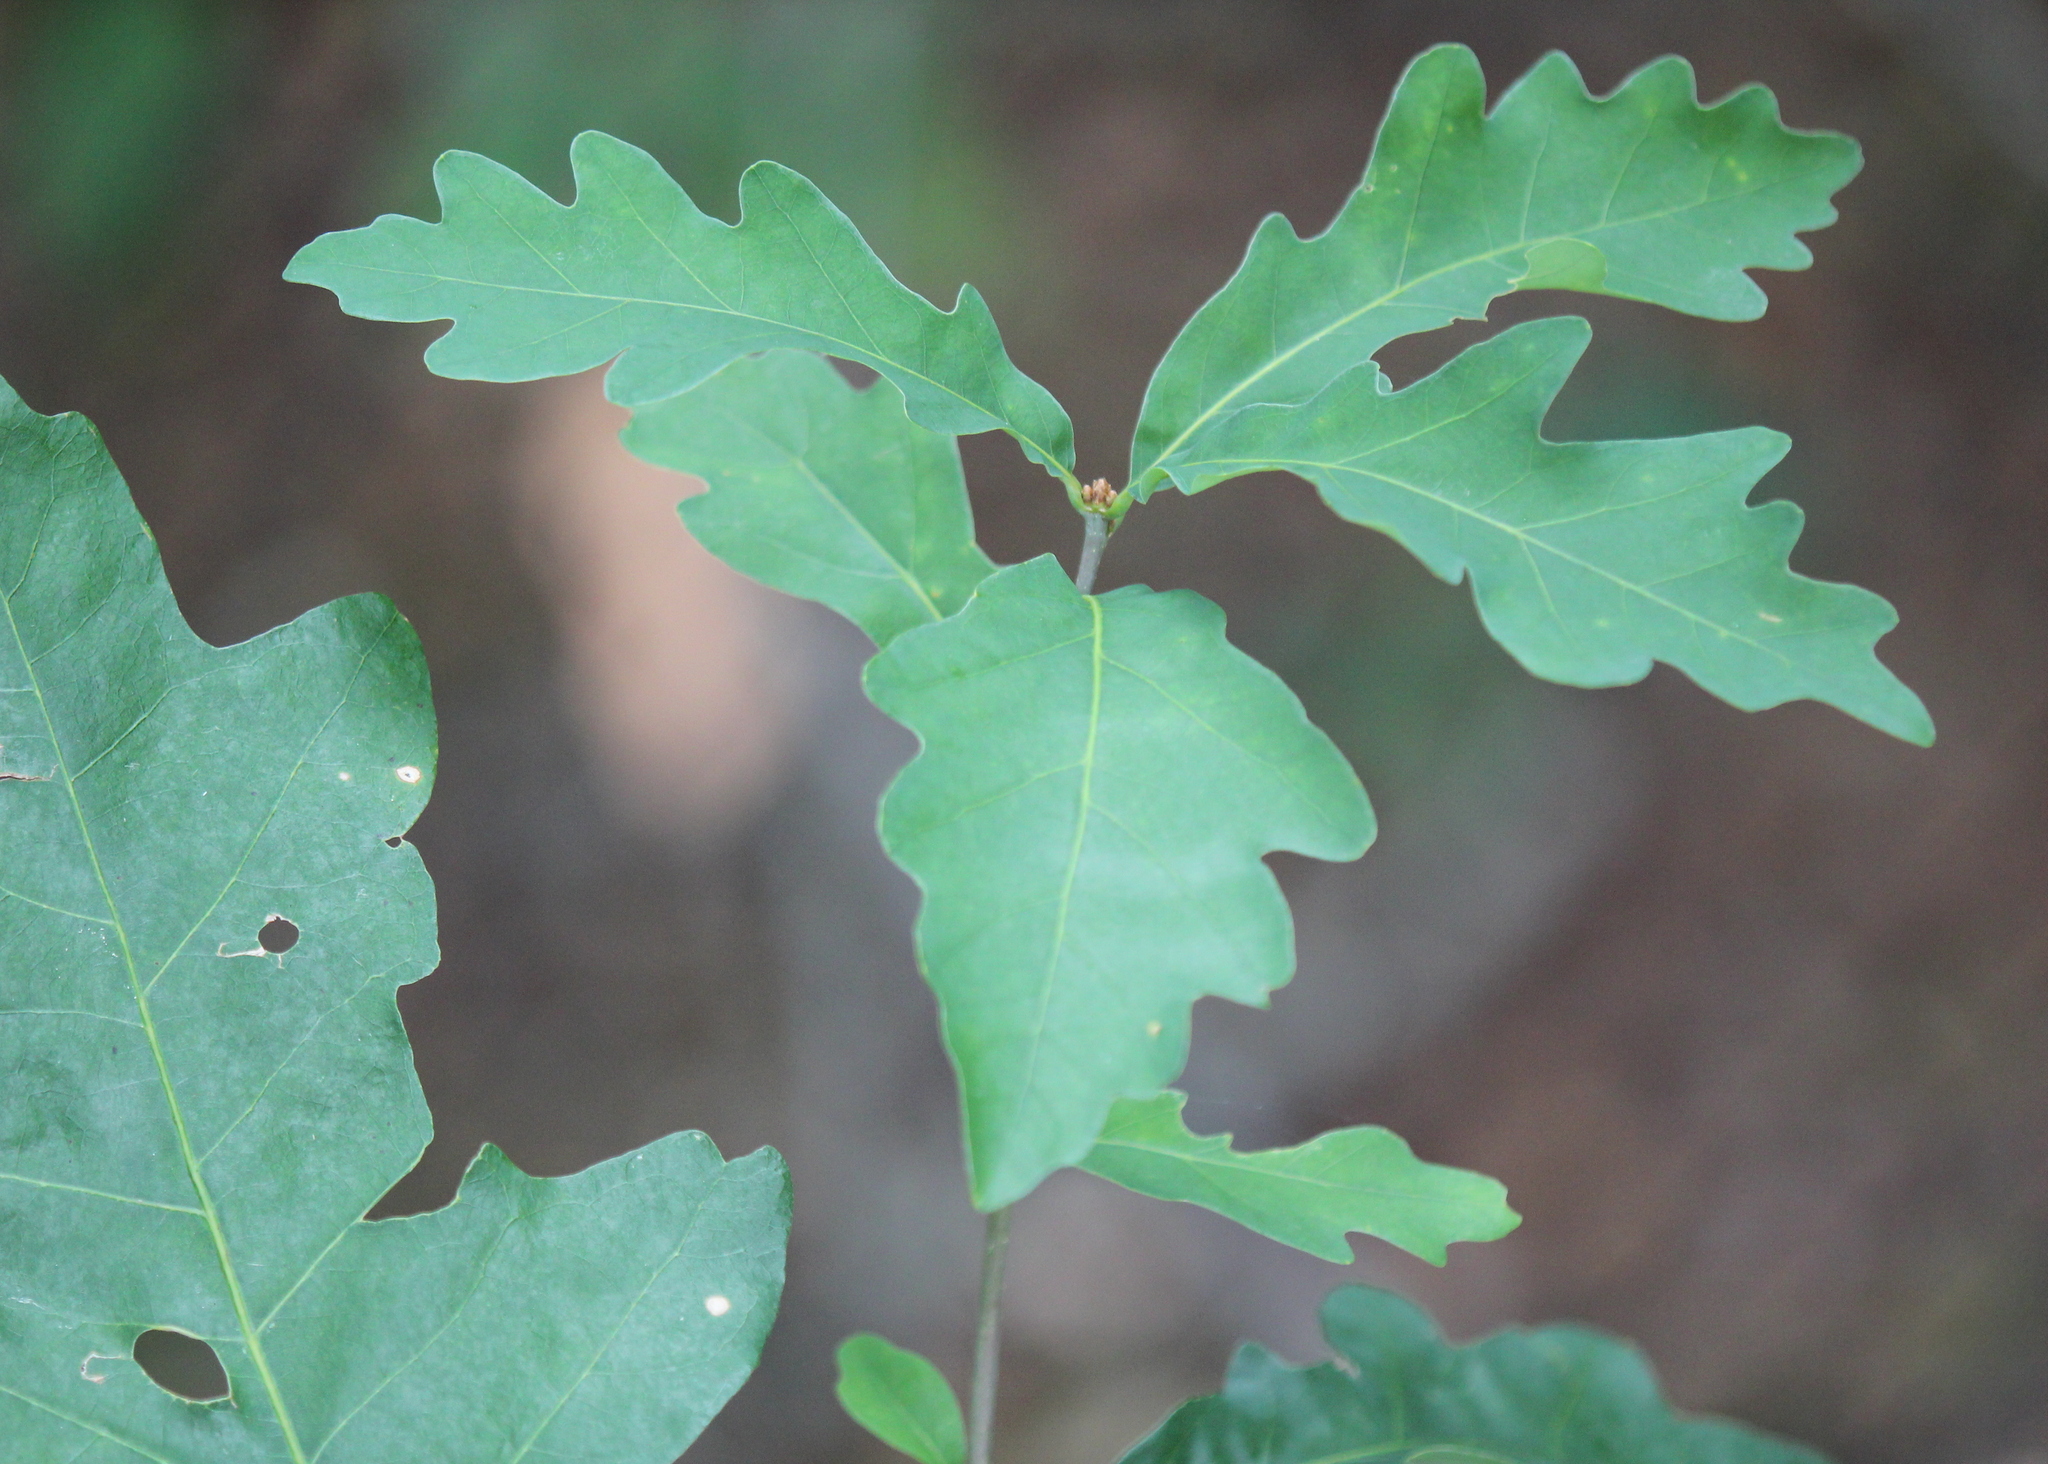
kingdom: Plantae
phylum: Tracheophyta
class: Magnoliopsida
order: Fagales
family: Fagaceae
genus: Quercus
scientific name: Quercus alba
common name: White oak
